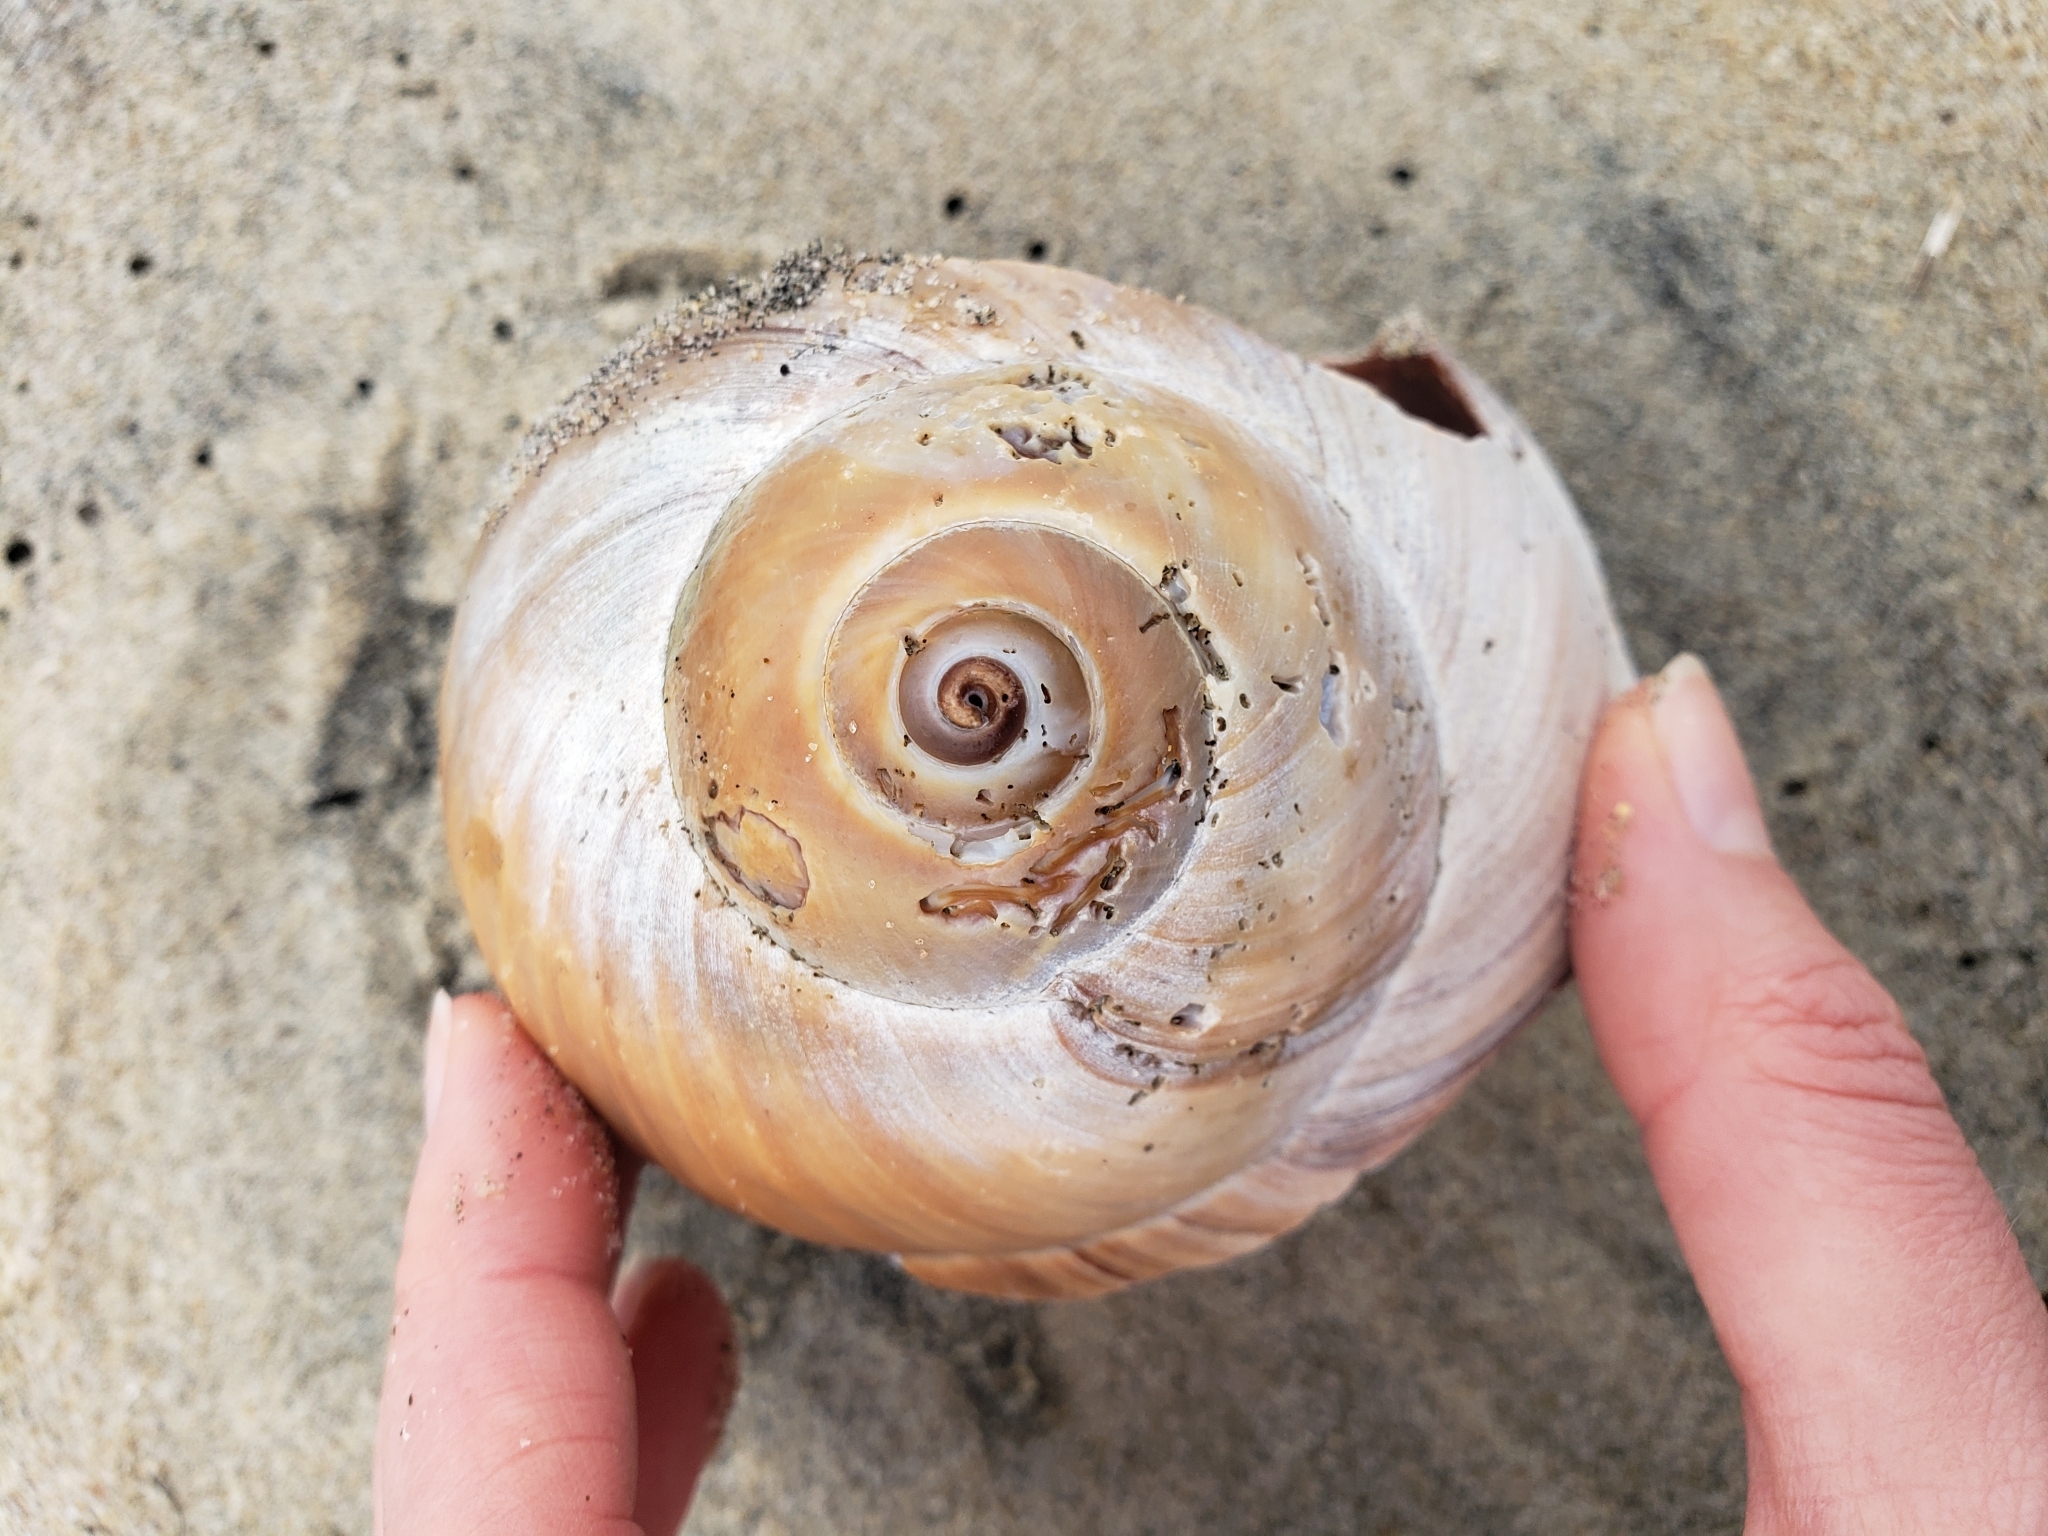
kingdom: Animalia
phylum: Mollusca
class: Gastropoda
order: Littorinimorpha
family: Naticidae
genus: Neverita
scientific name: Neverita lewisii
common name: Lewis' moonsnail
